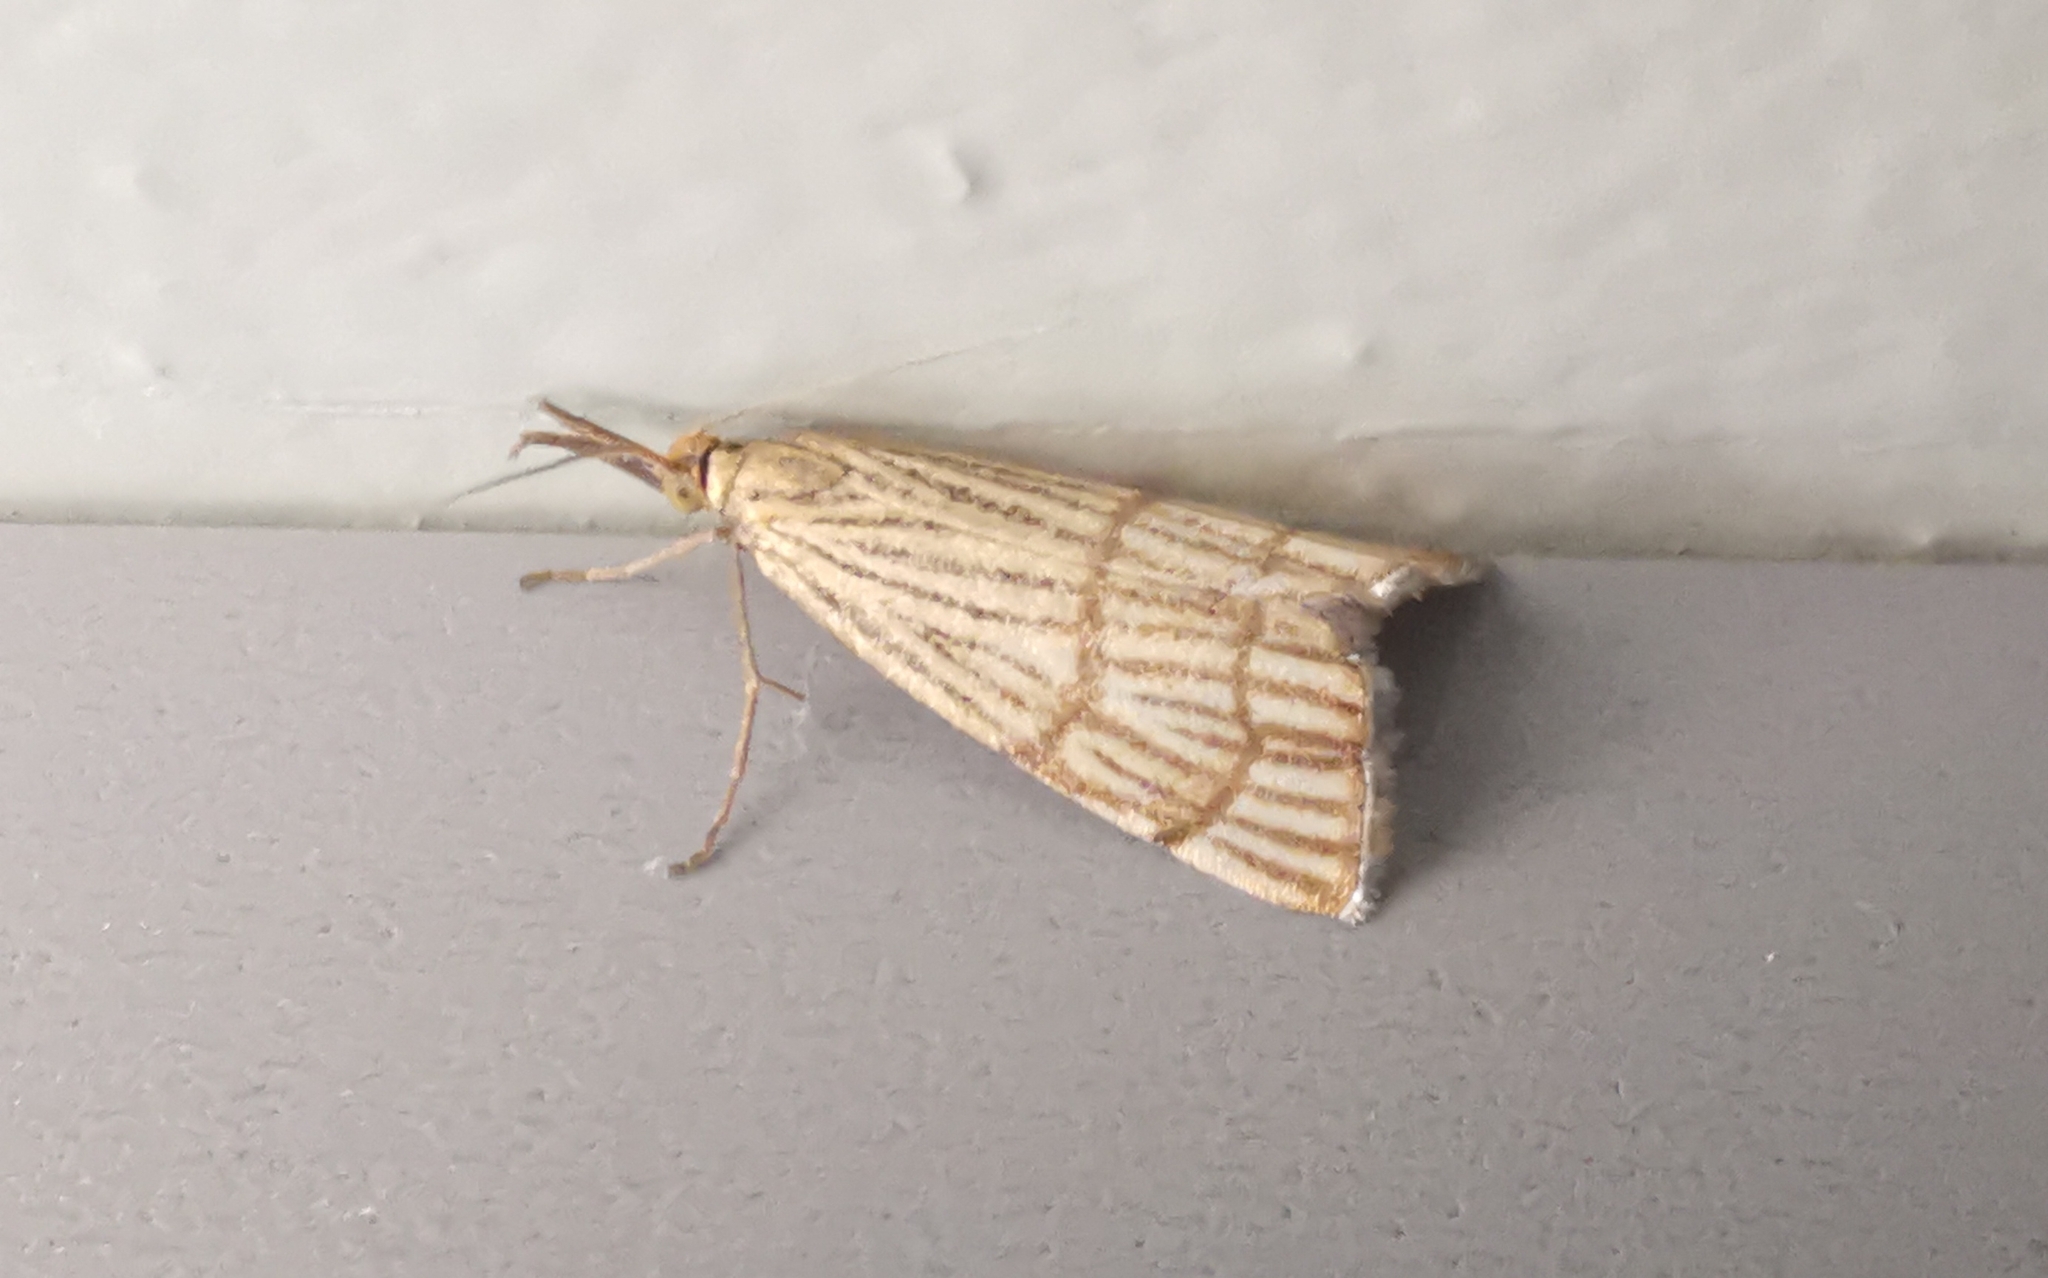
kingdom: Animalia
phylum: Arthropoda
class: Insecta
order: Lepidoptera
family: Crambidae
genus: Chrysocrambus
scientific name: Chrysocrambus linetella
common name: Orange-bar grass-veneer
